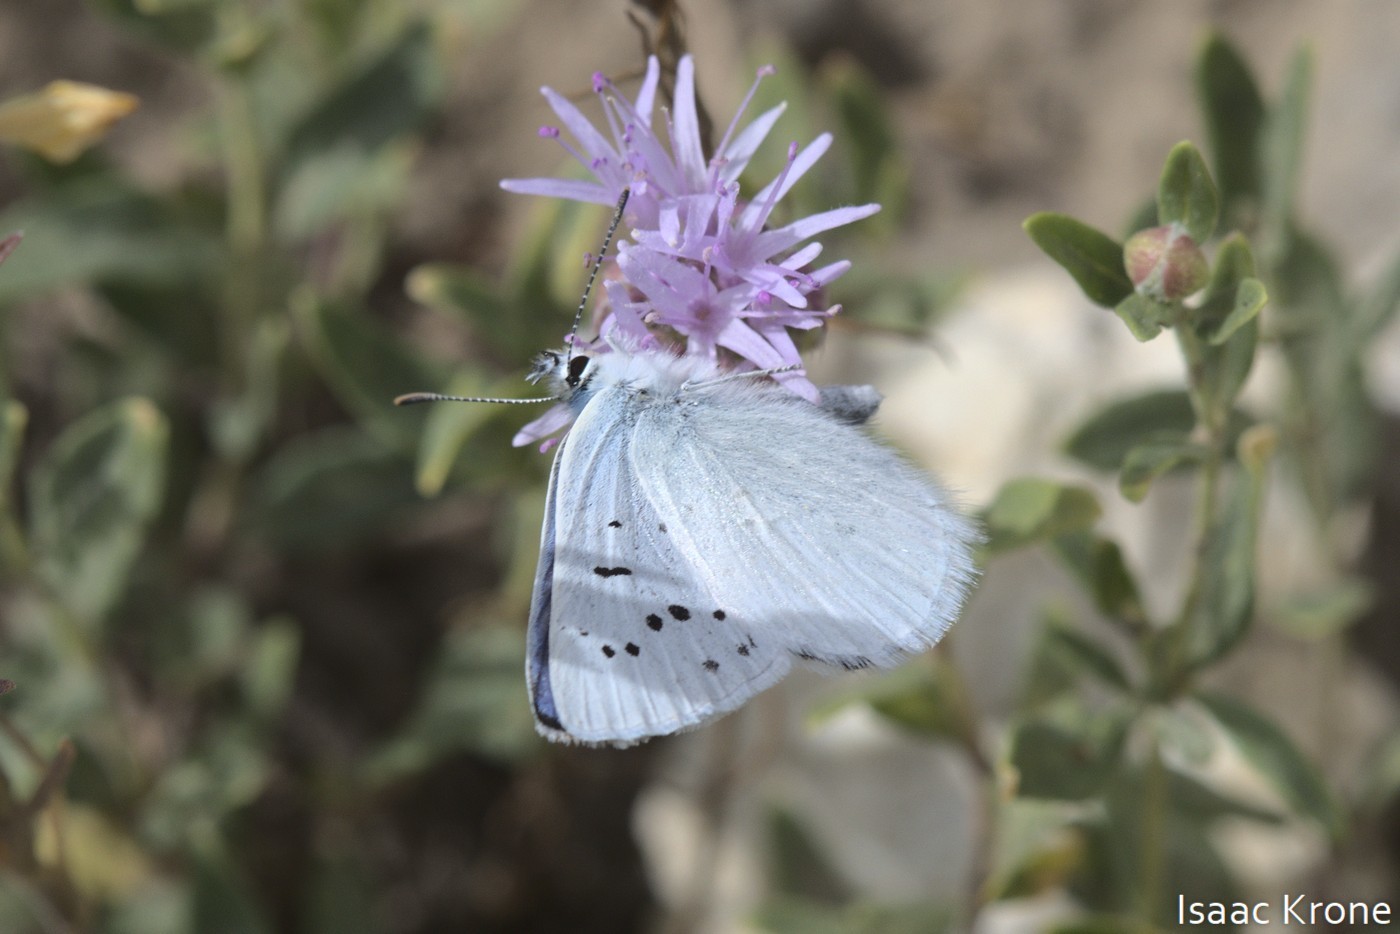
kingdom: Animalia
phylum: Arthropoda
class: Insecta
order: Lepidoptera
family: Lycaenidae
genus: Tharsalea
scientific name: Tharsalea heteronea
